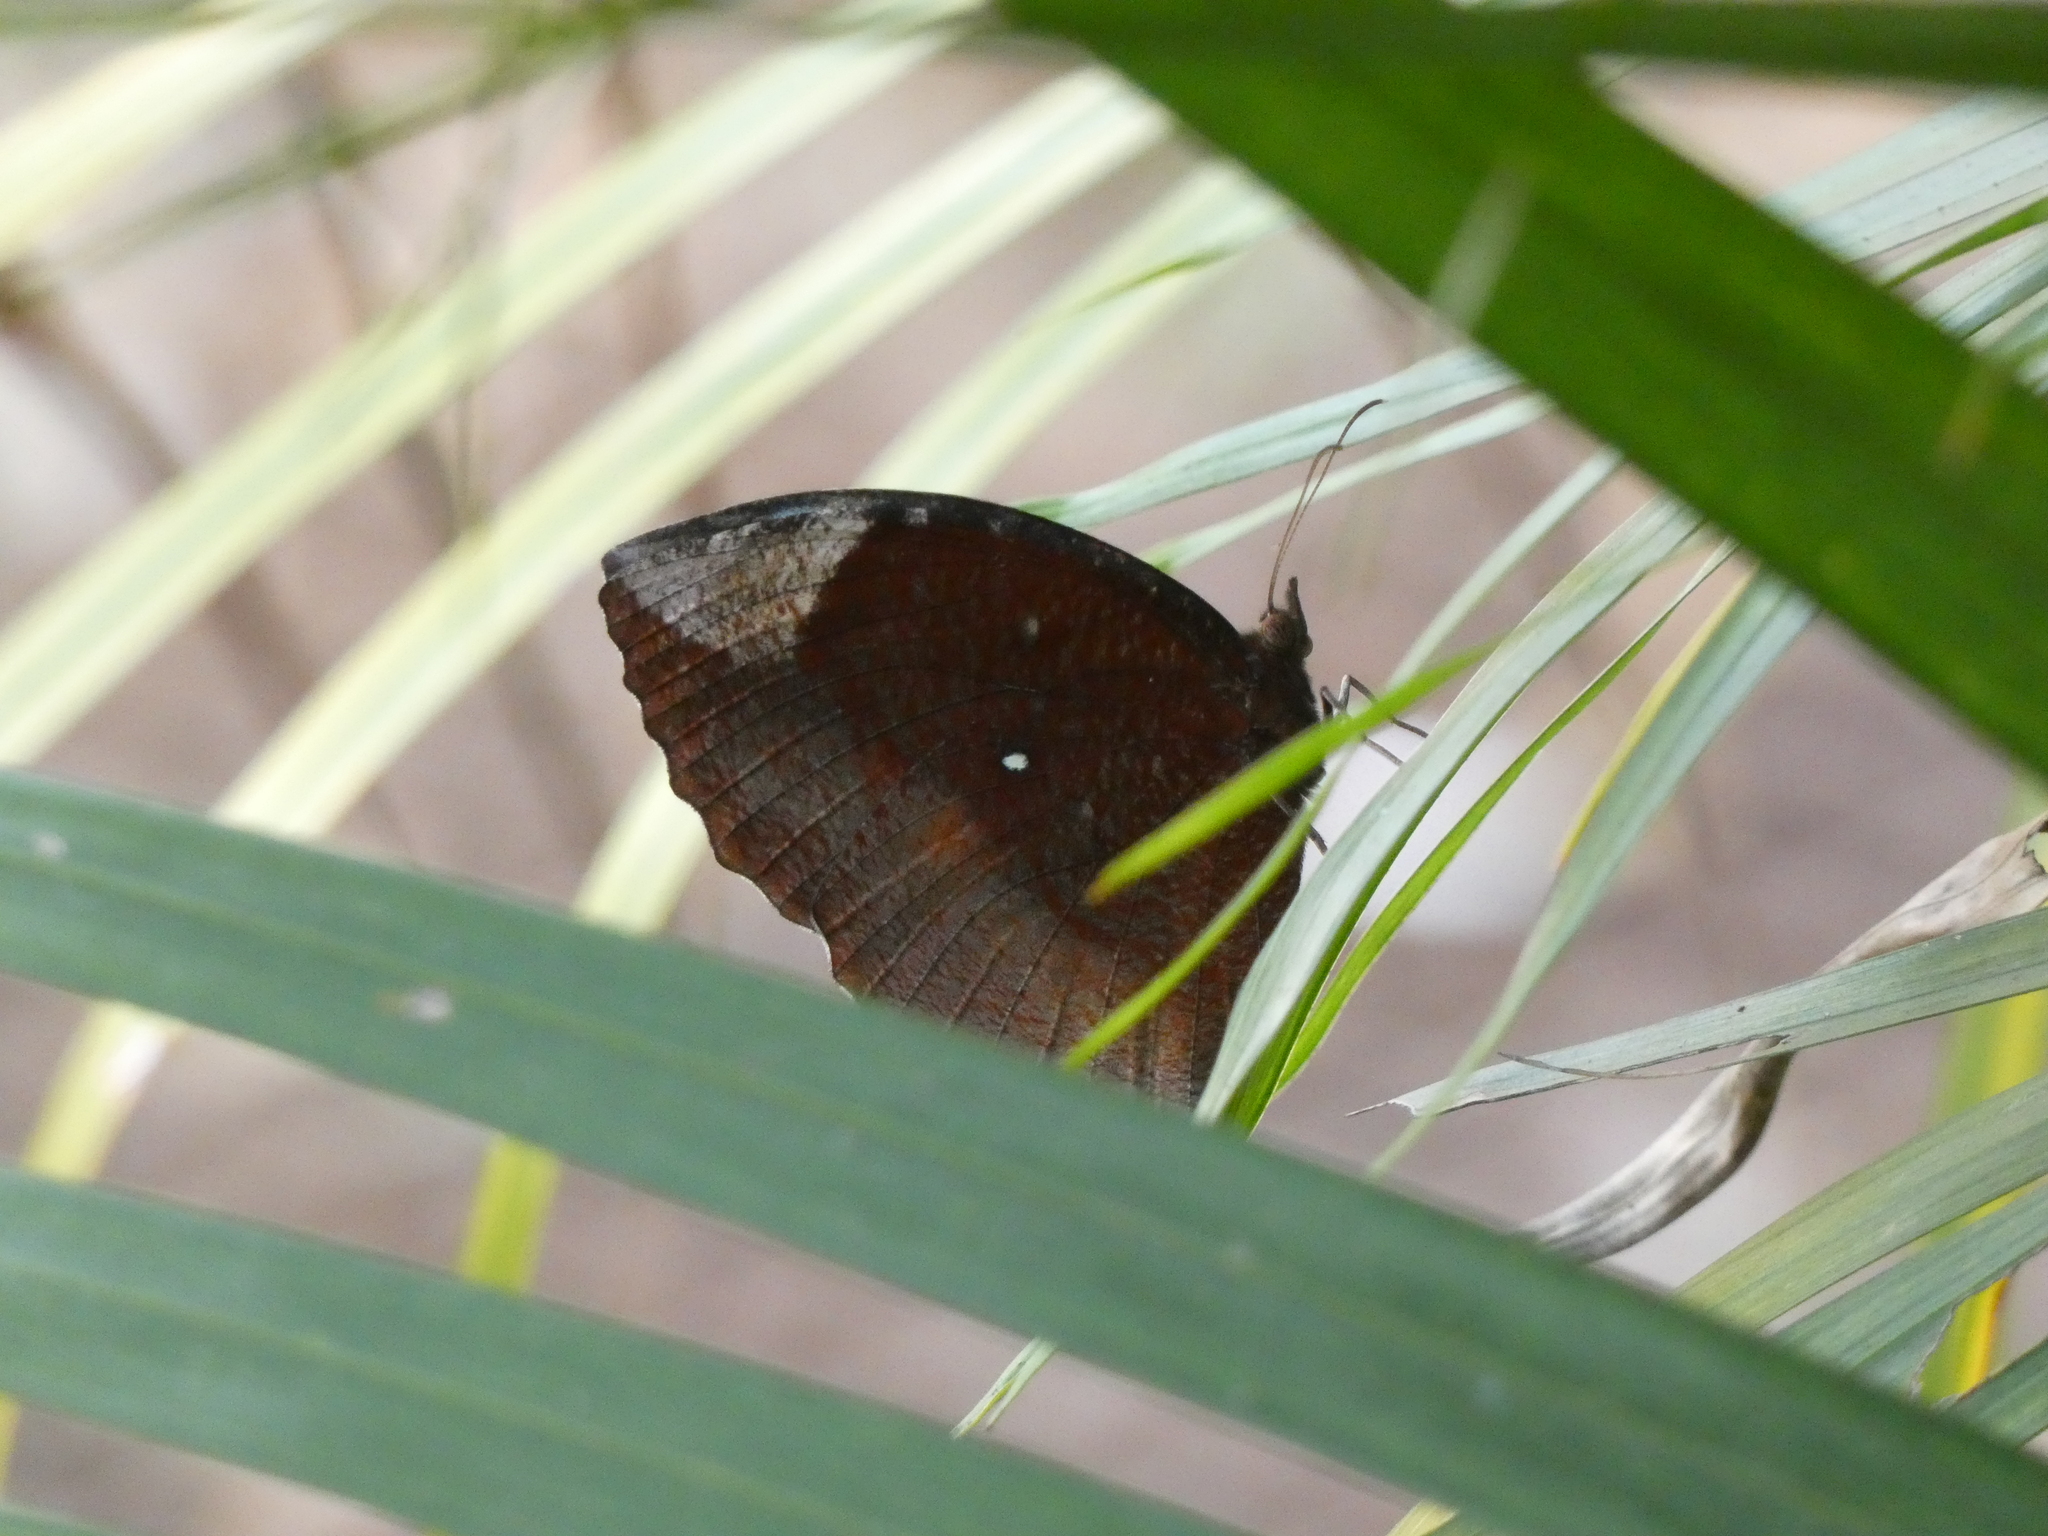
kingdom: Animalia
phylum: Arthropoda
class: Insecta
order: Lepidoptera
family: Nymphalidae
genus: Elymnias
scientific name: Elymnias hypermnestra
